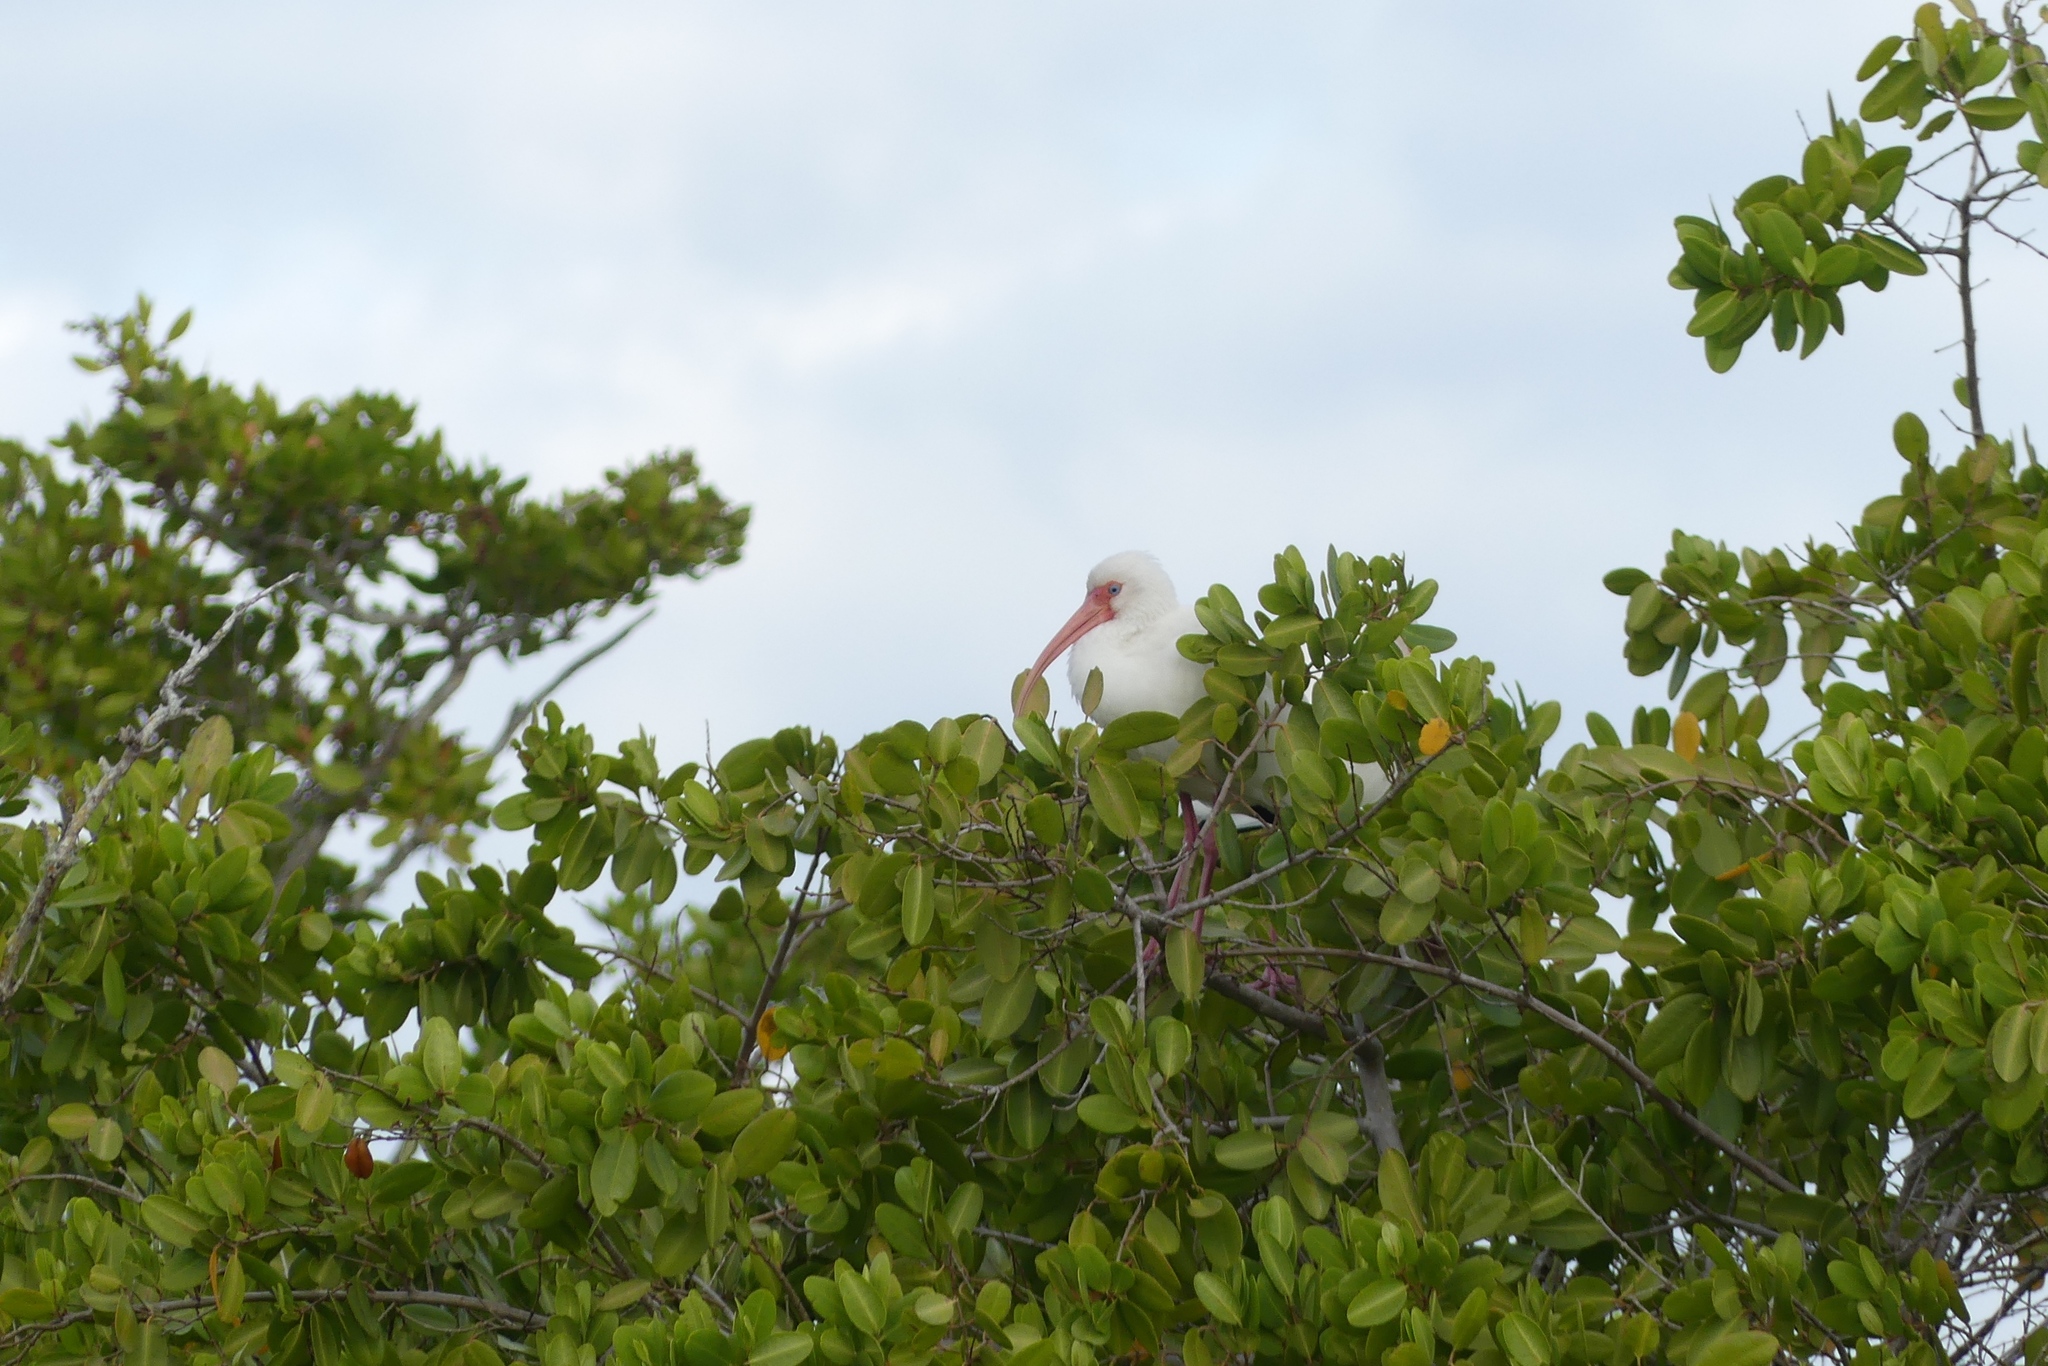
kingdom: Animalia
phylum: Chordata
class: Aves
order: Pelecaniformes
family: Threskiornithidae
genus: Eudocimus
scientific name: Eudocimus albus
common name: White ibis
